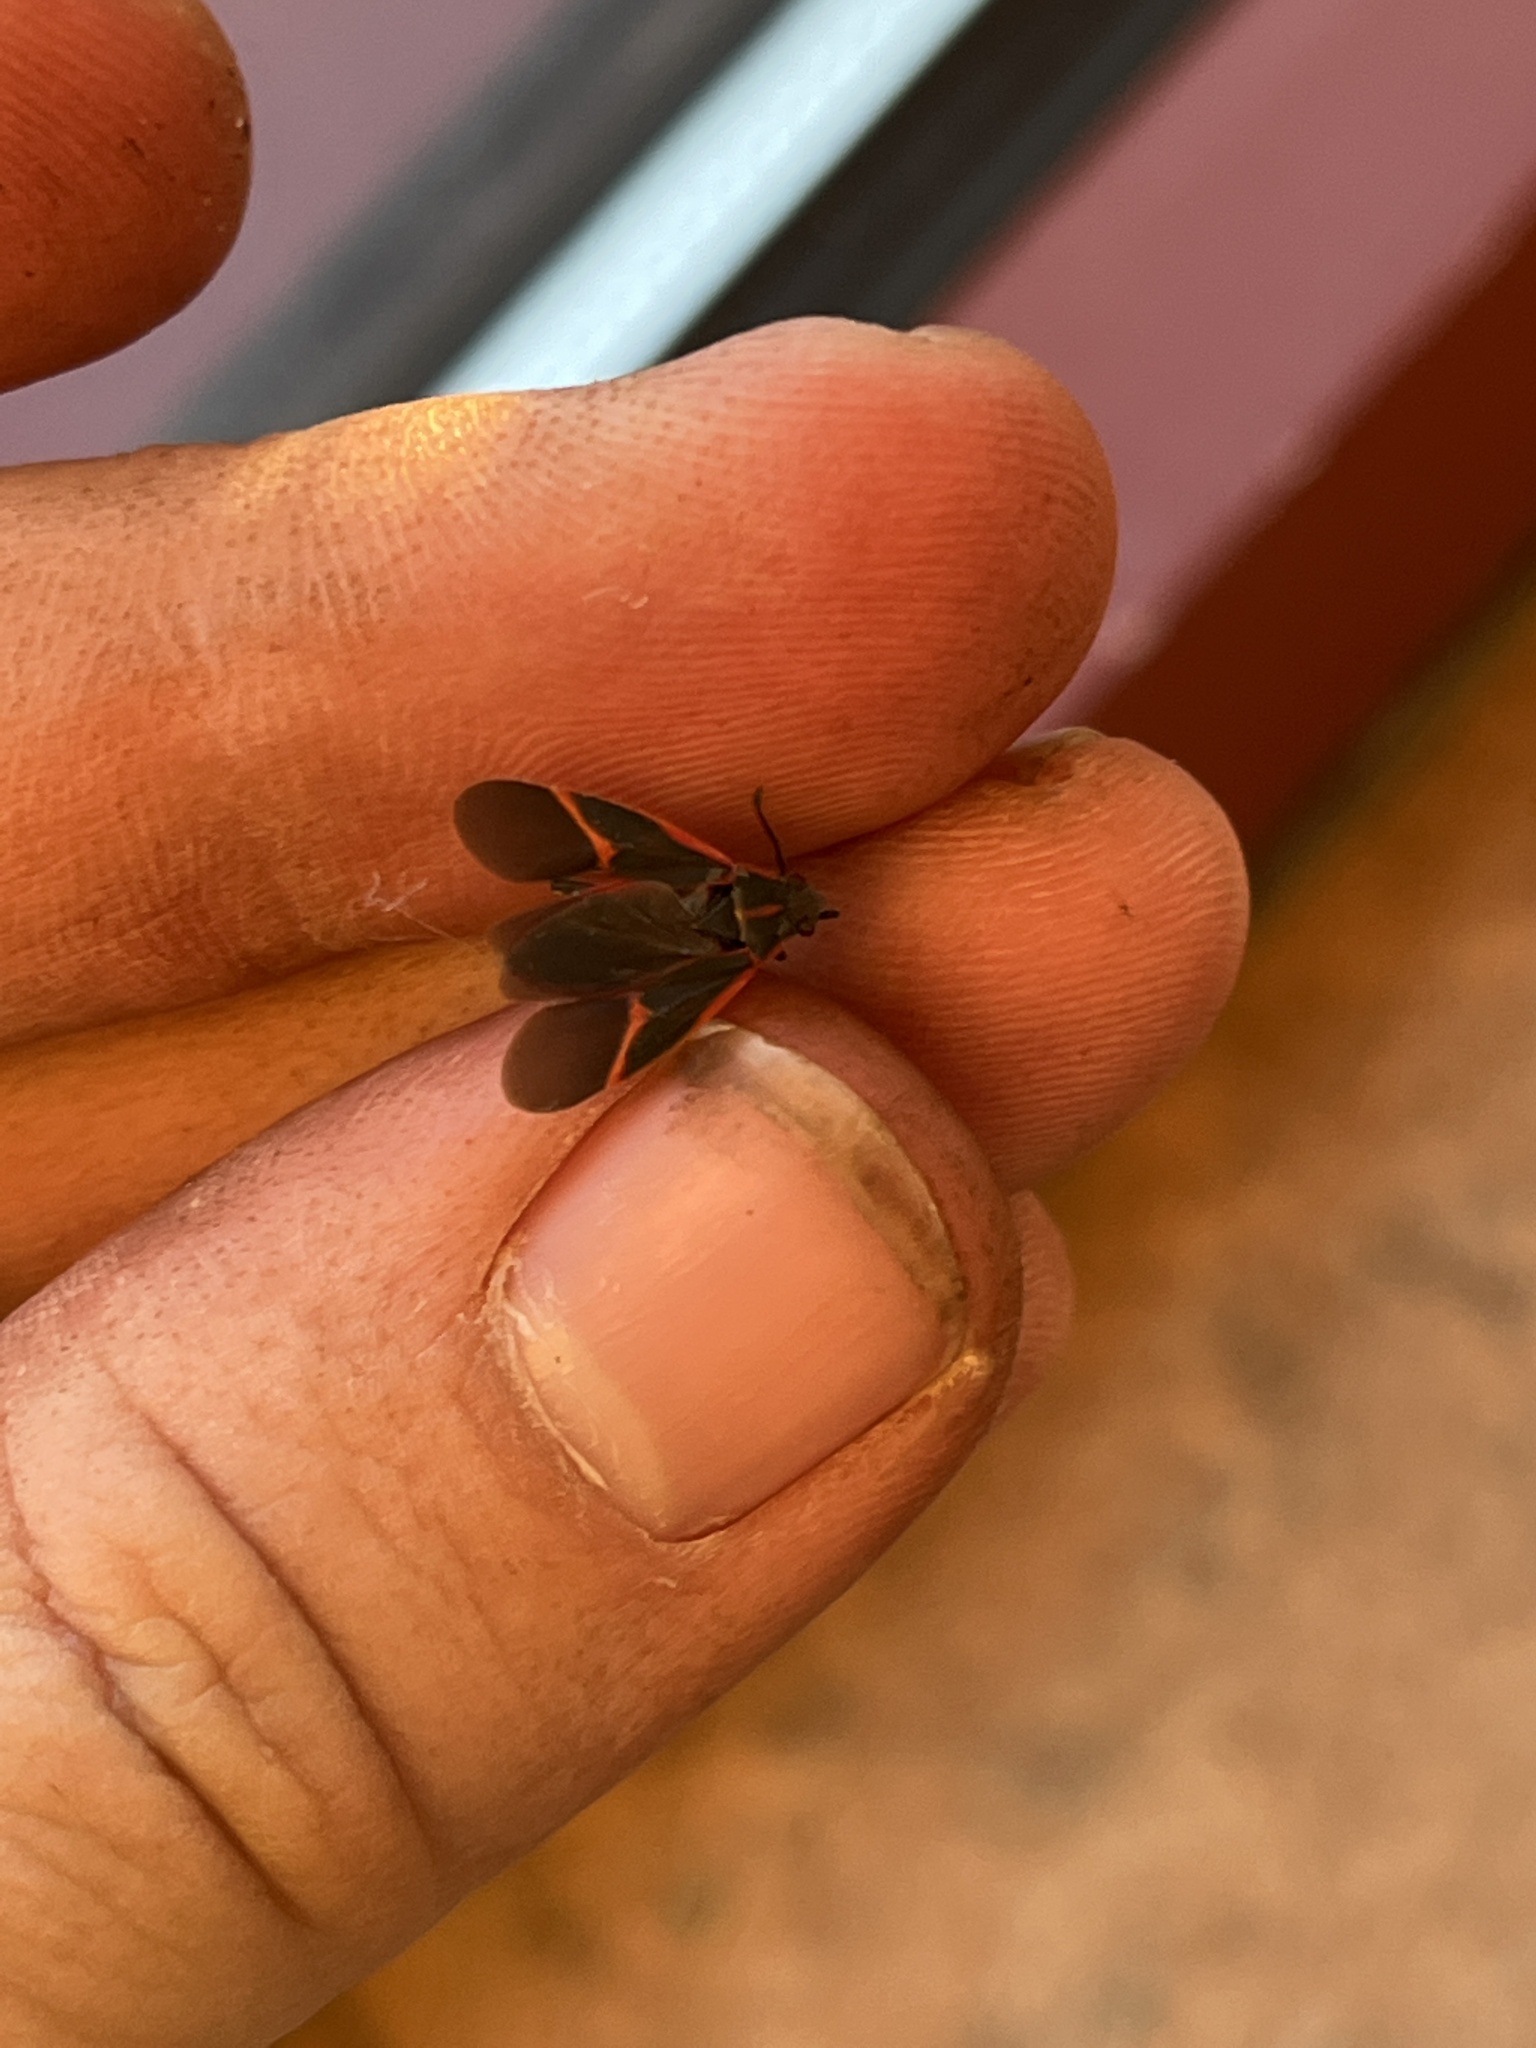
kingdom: Animalia
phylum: Arthropoda
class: Insecta
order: Hemiptera
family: Rhopalidae
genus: Boisea
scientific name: Boisea trivittata
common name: Boxelder bug
